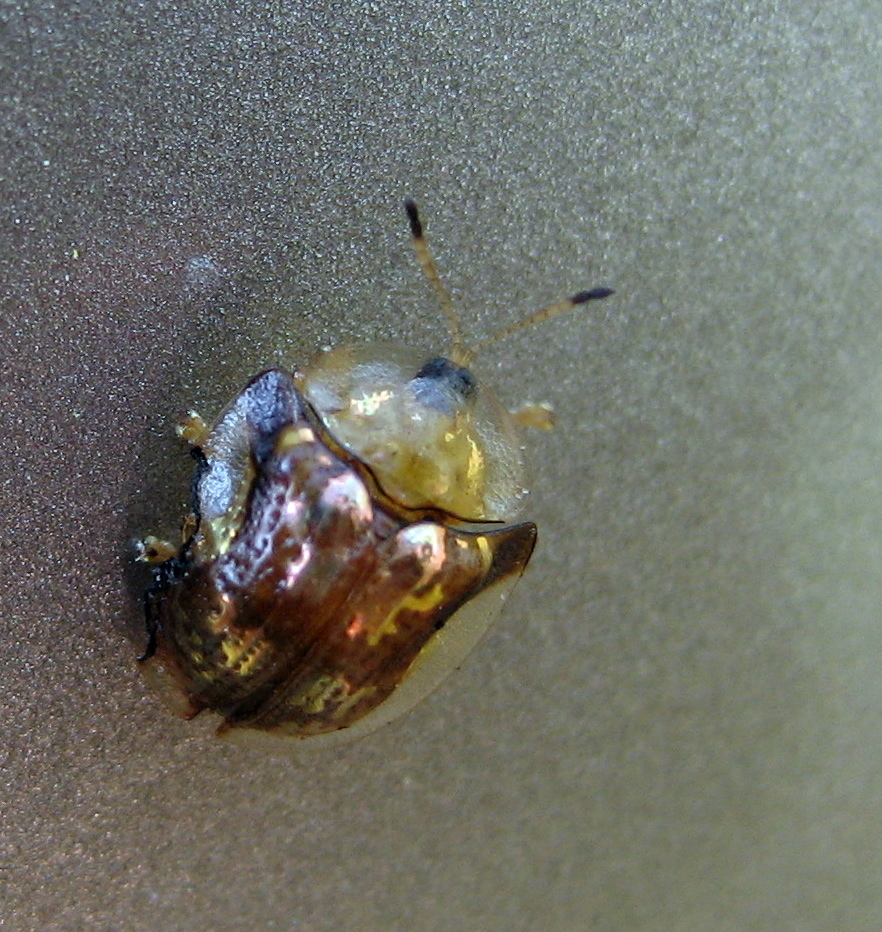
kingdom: Animalia
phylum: Arthropoda
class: Insecta
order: Coleoptera
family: Chrysomelidae
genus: Deloyala
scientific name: Deloyala guttata
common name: Mottled tortoise beetle
